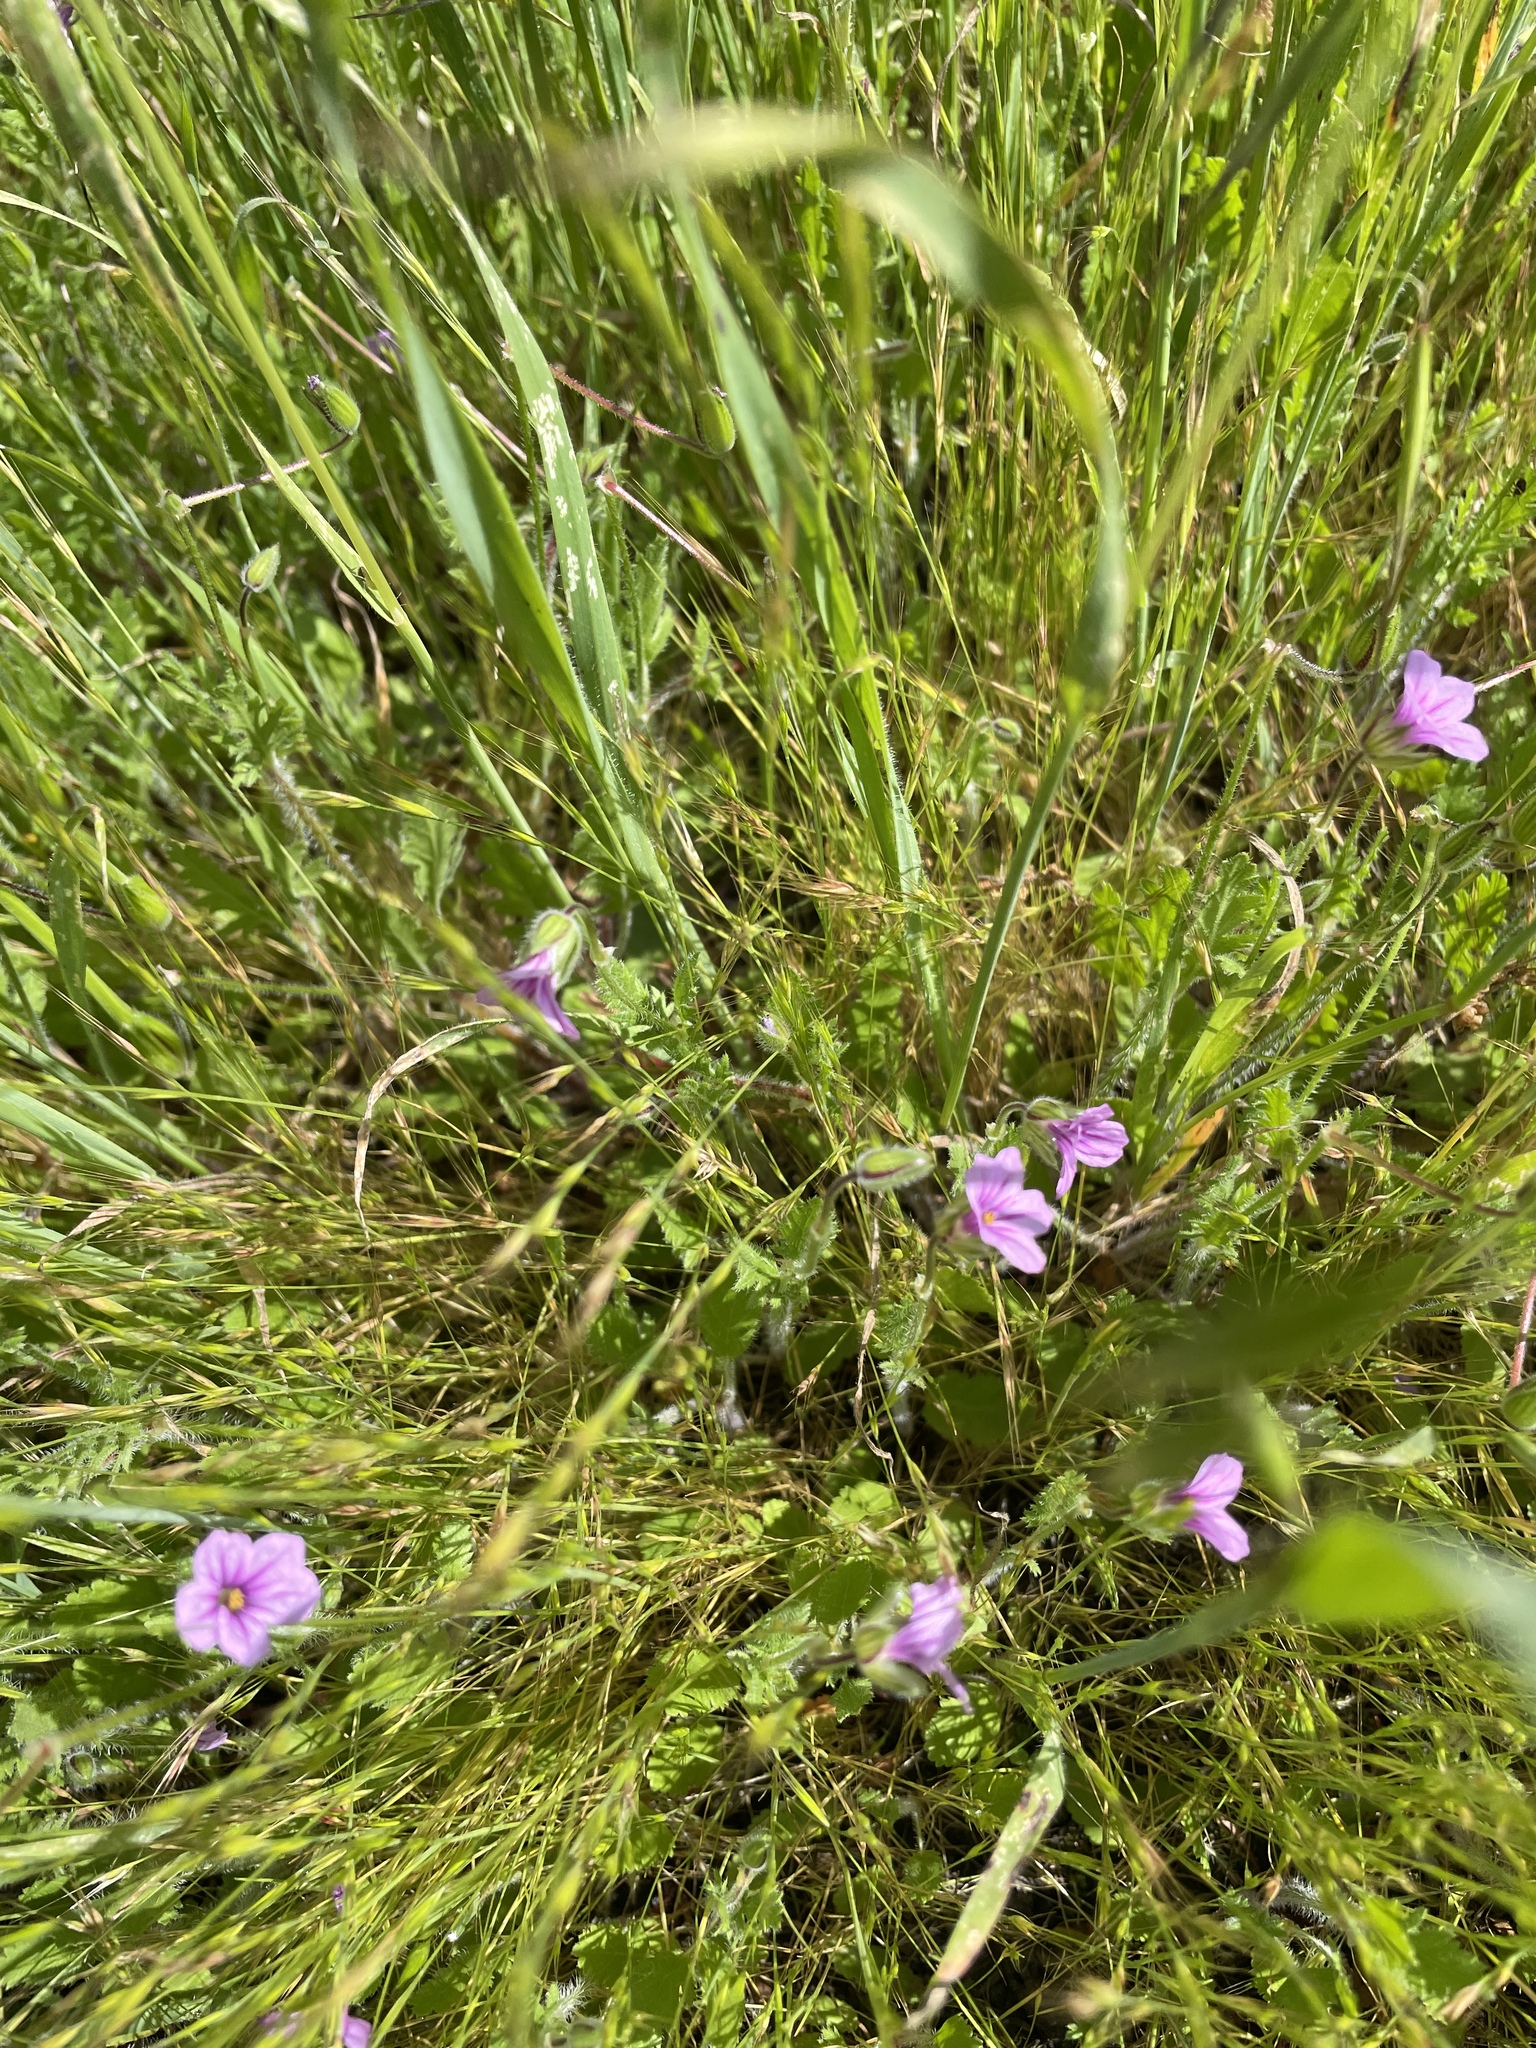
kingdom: Plantae
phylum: Tracheophyta
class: Magnoliopsida
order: Geraniales
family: Geraniaceae
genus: Erodium
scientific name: Erodium botrys
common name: Mediterranean stork's-bill
